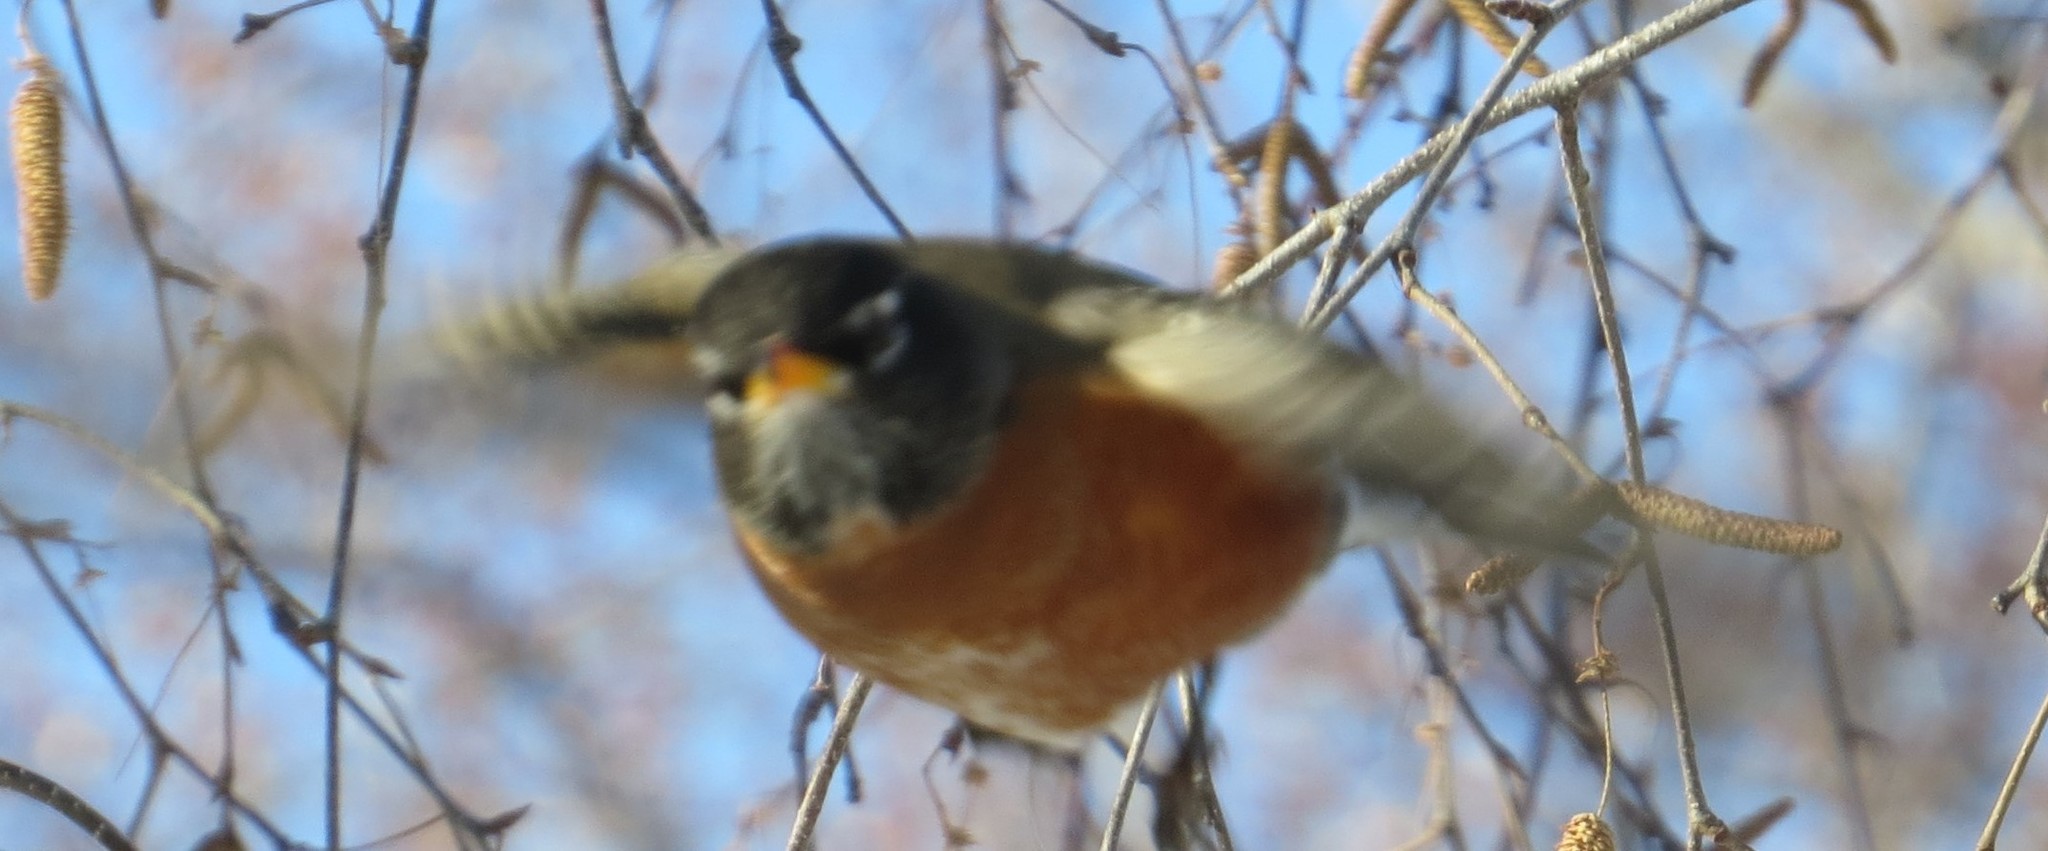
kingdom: Animalia
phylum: Chordata
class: Aves
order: Passeriformes
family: Turdidae
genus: Turdus
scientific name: Turdus migratorius
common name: American robin
